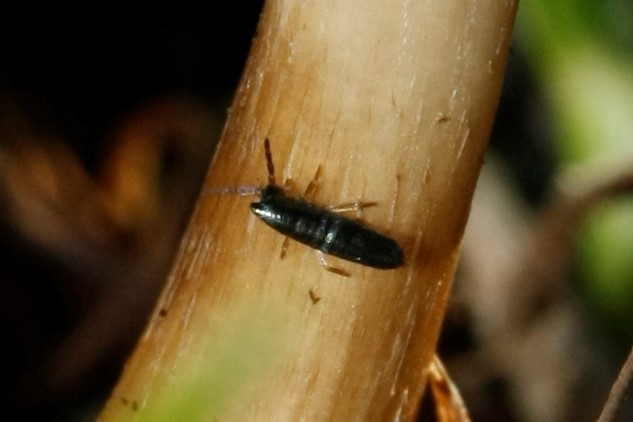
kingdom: Animalia
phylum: Arthropoda
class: Collembola
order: Entomobryomorpha
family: Entomobryidae
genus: Lepidocyrtus
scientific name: Lepidocyrtus paradoxus
